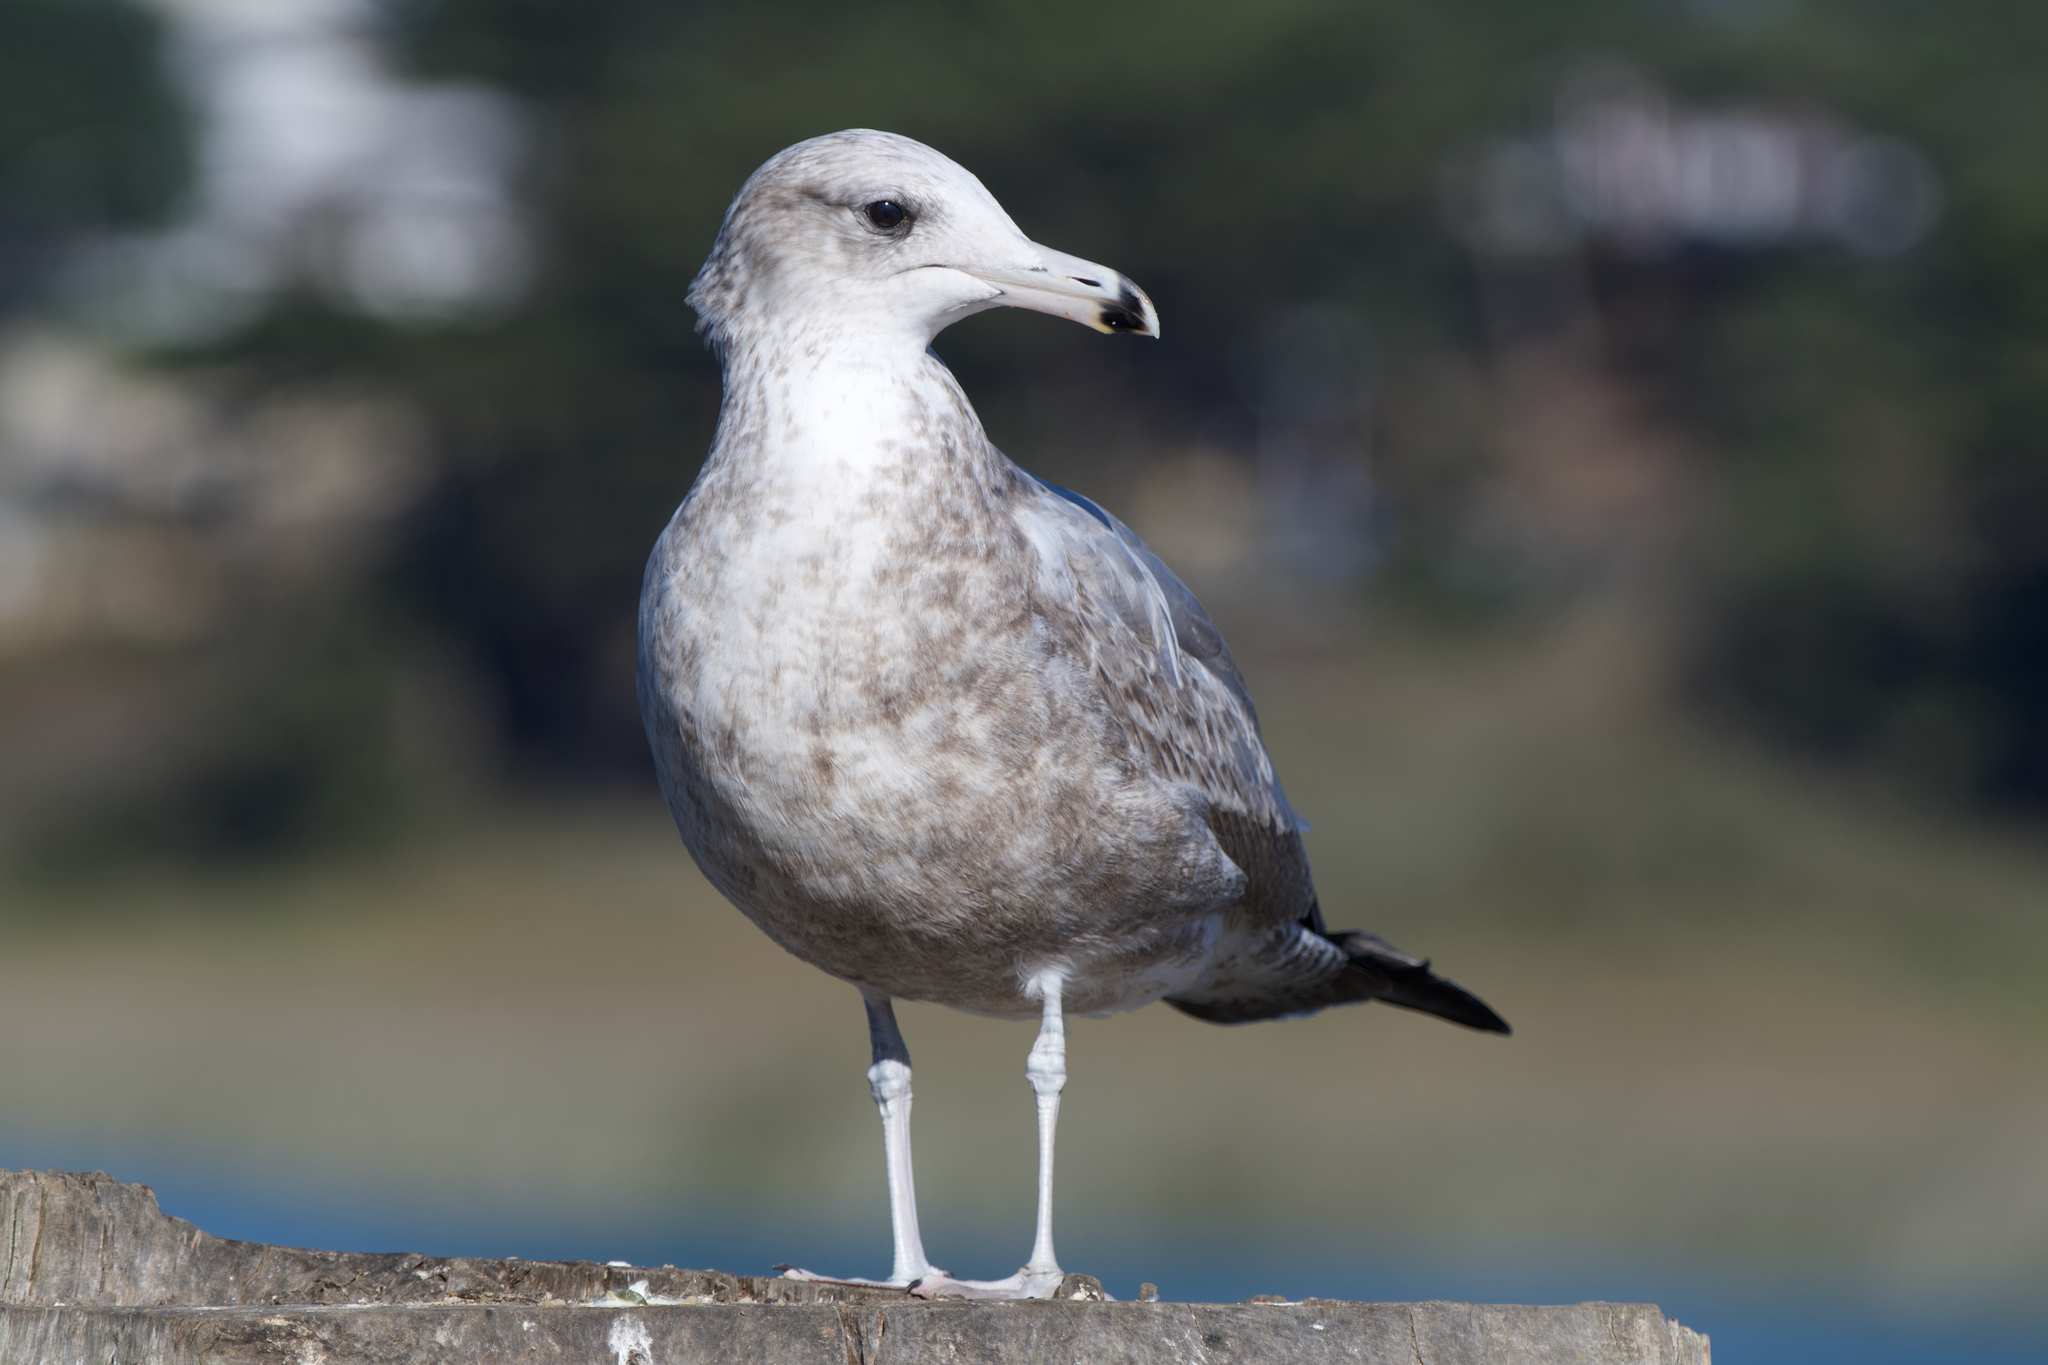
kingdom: Animalia
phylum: Chordata
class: Aves
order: Charadriiformes
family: Laridae
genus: Larus
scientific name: Larus californicus
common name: California gull
